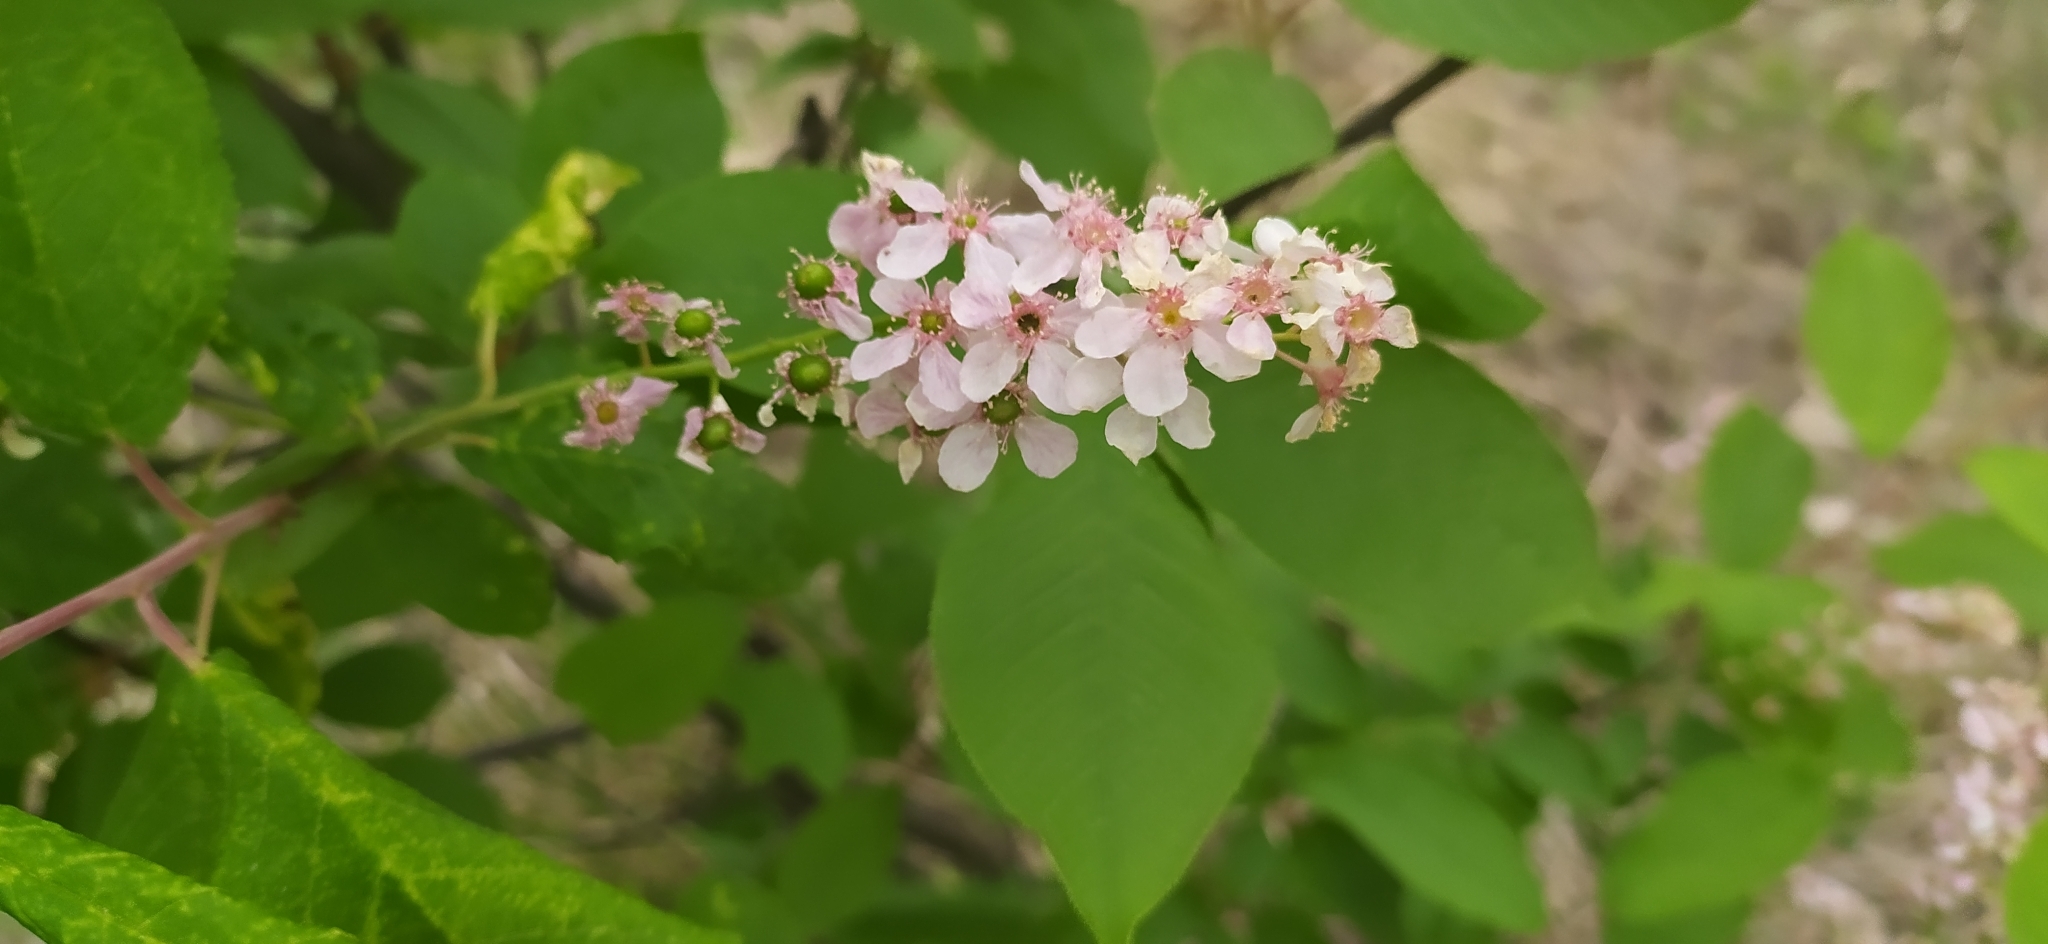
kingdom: Plantae
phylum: Tracheophyta
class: Magnoliopsida
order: Rosales
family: Rosaceae
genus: Prunus
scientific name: Prunus padus
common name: Bird cherry
